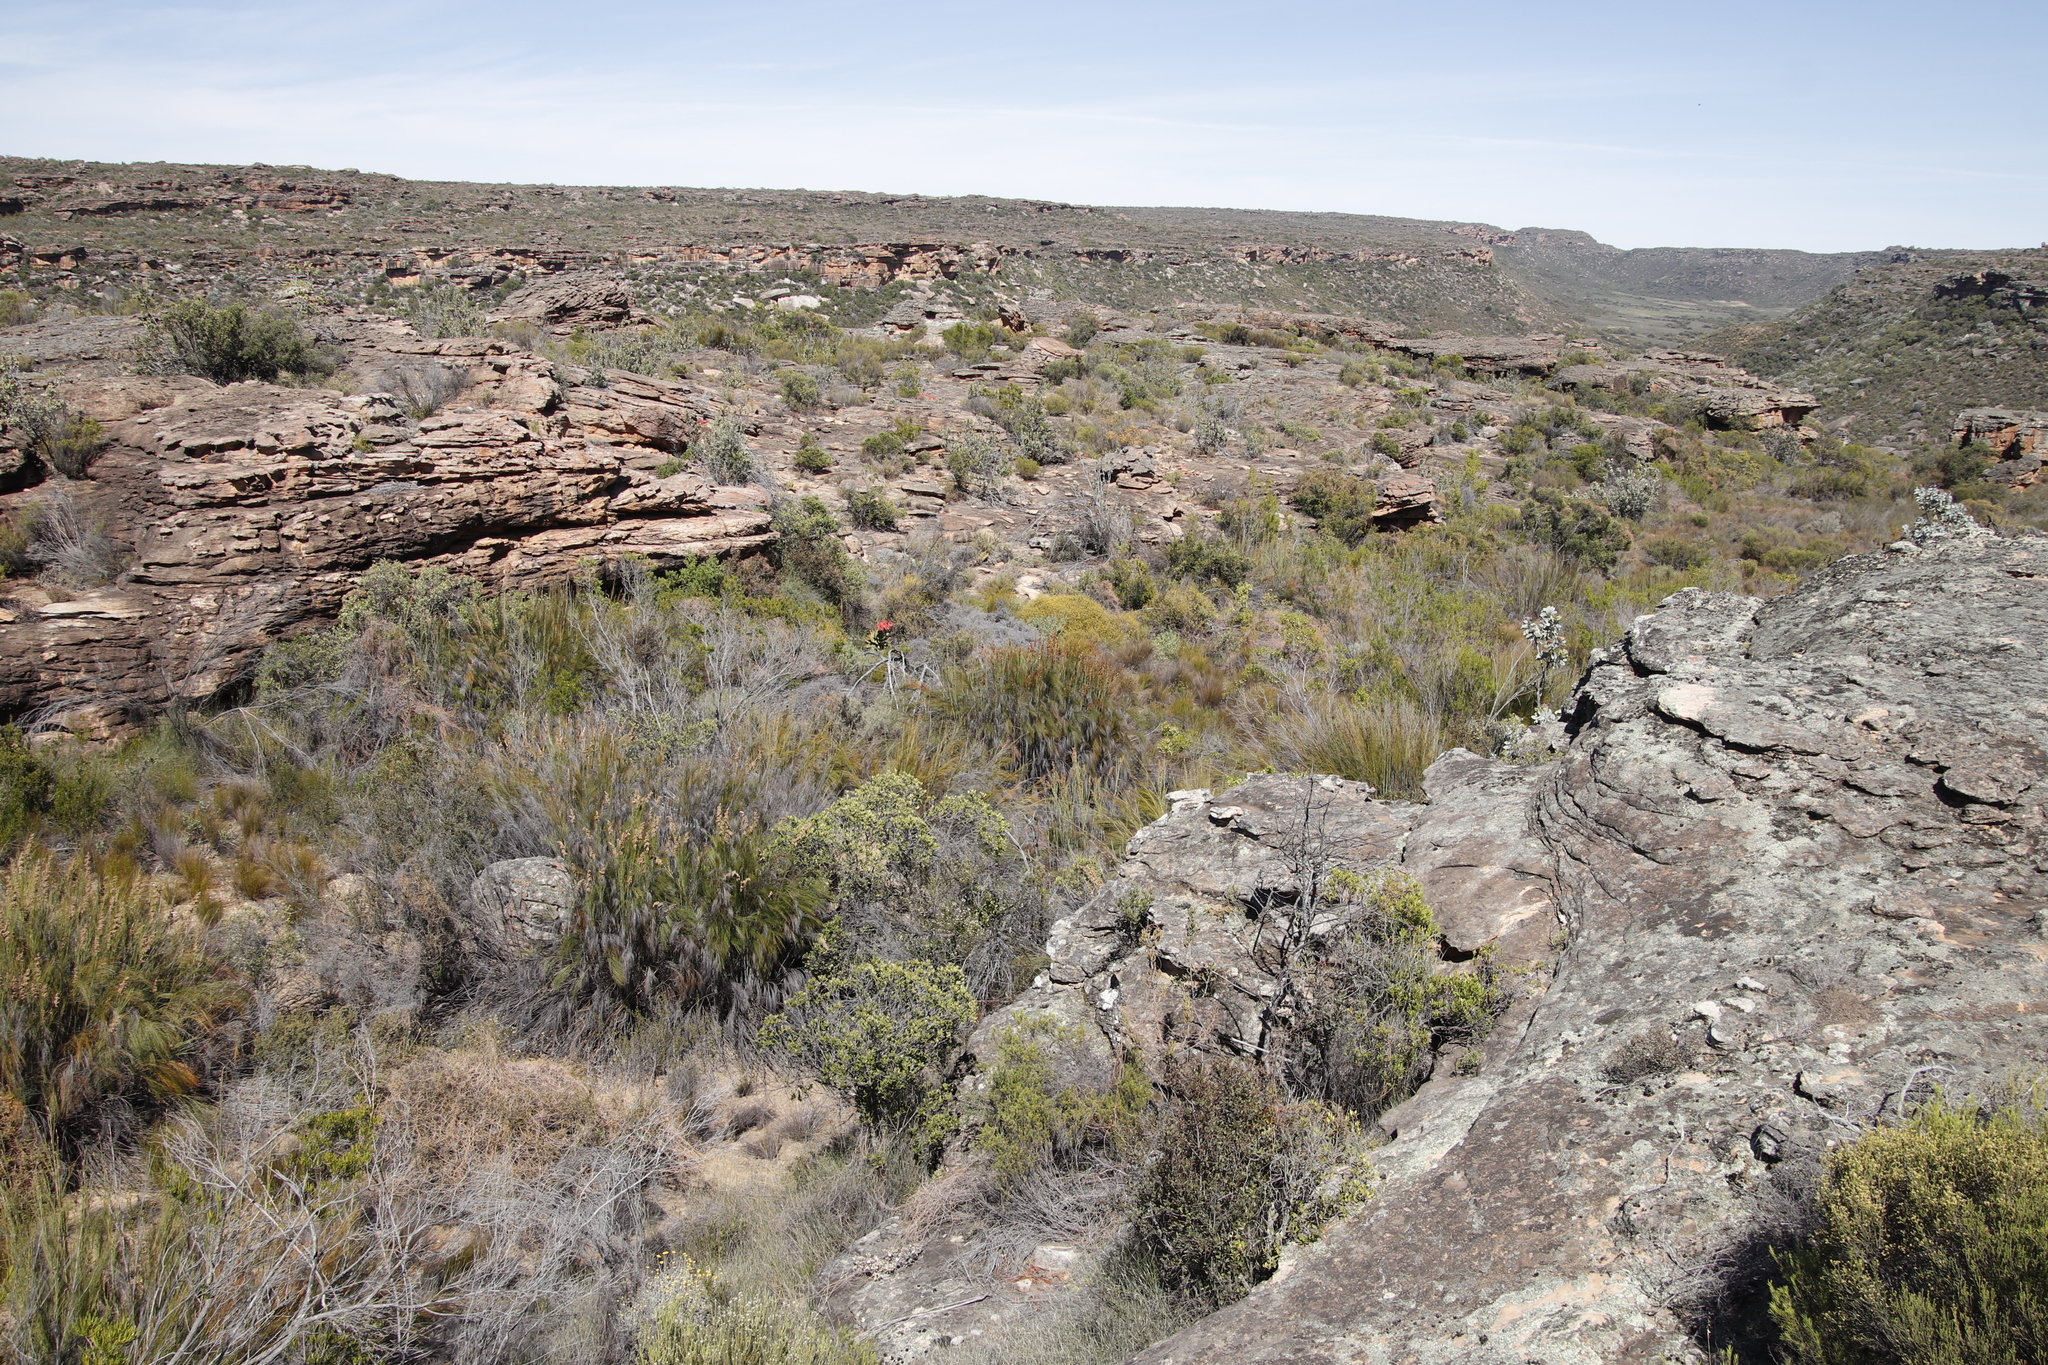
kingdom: Plantae
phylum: Tracheophyta
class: Liliopsida
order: Asparagales
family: Asphodelaceae
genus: Aloe
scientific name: Aloe perfoliata
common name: Mitra aloe
